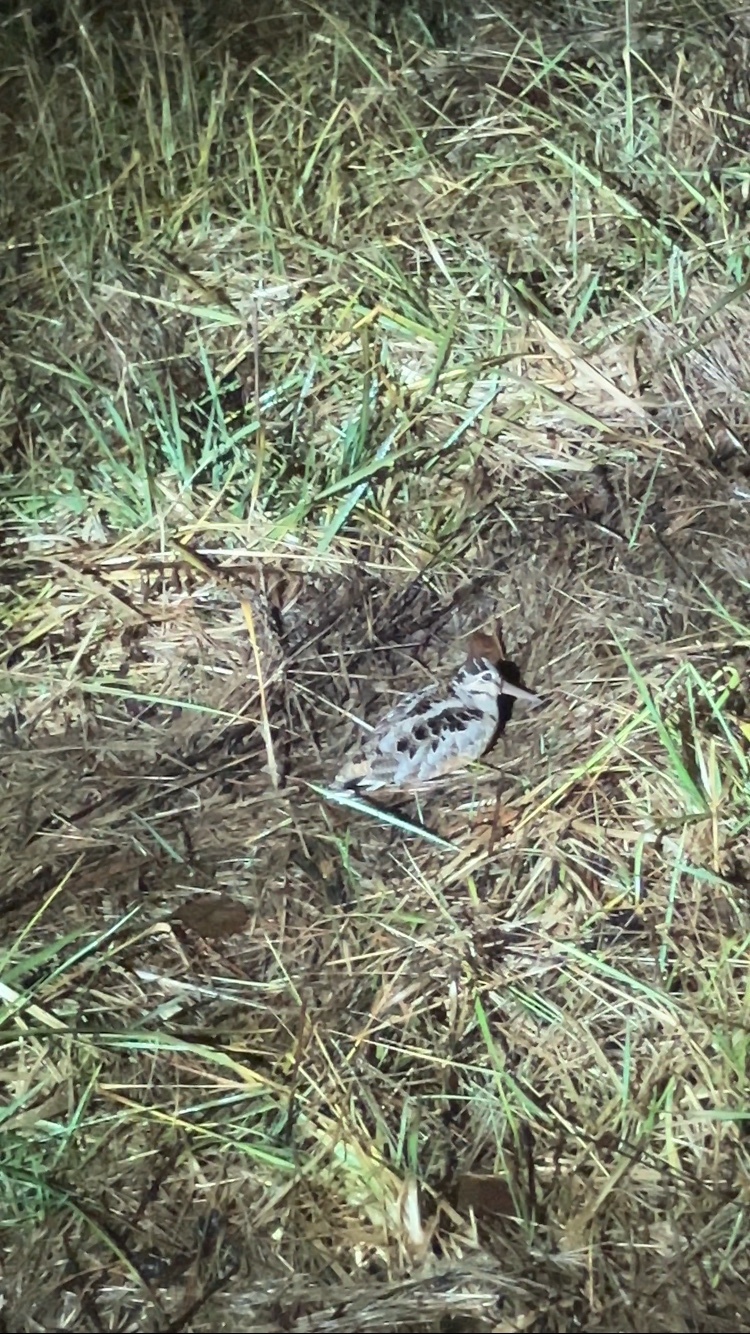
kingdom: Animalia
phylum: Chordata
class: Aves
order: Charadriiformes
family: Scolopacidae
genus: Scolopax
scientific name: Scolopax minor
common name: American woodcock
